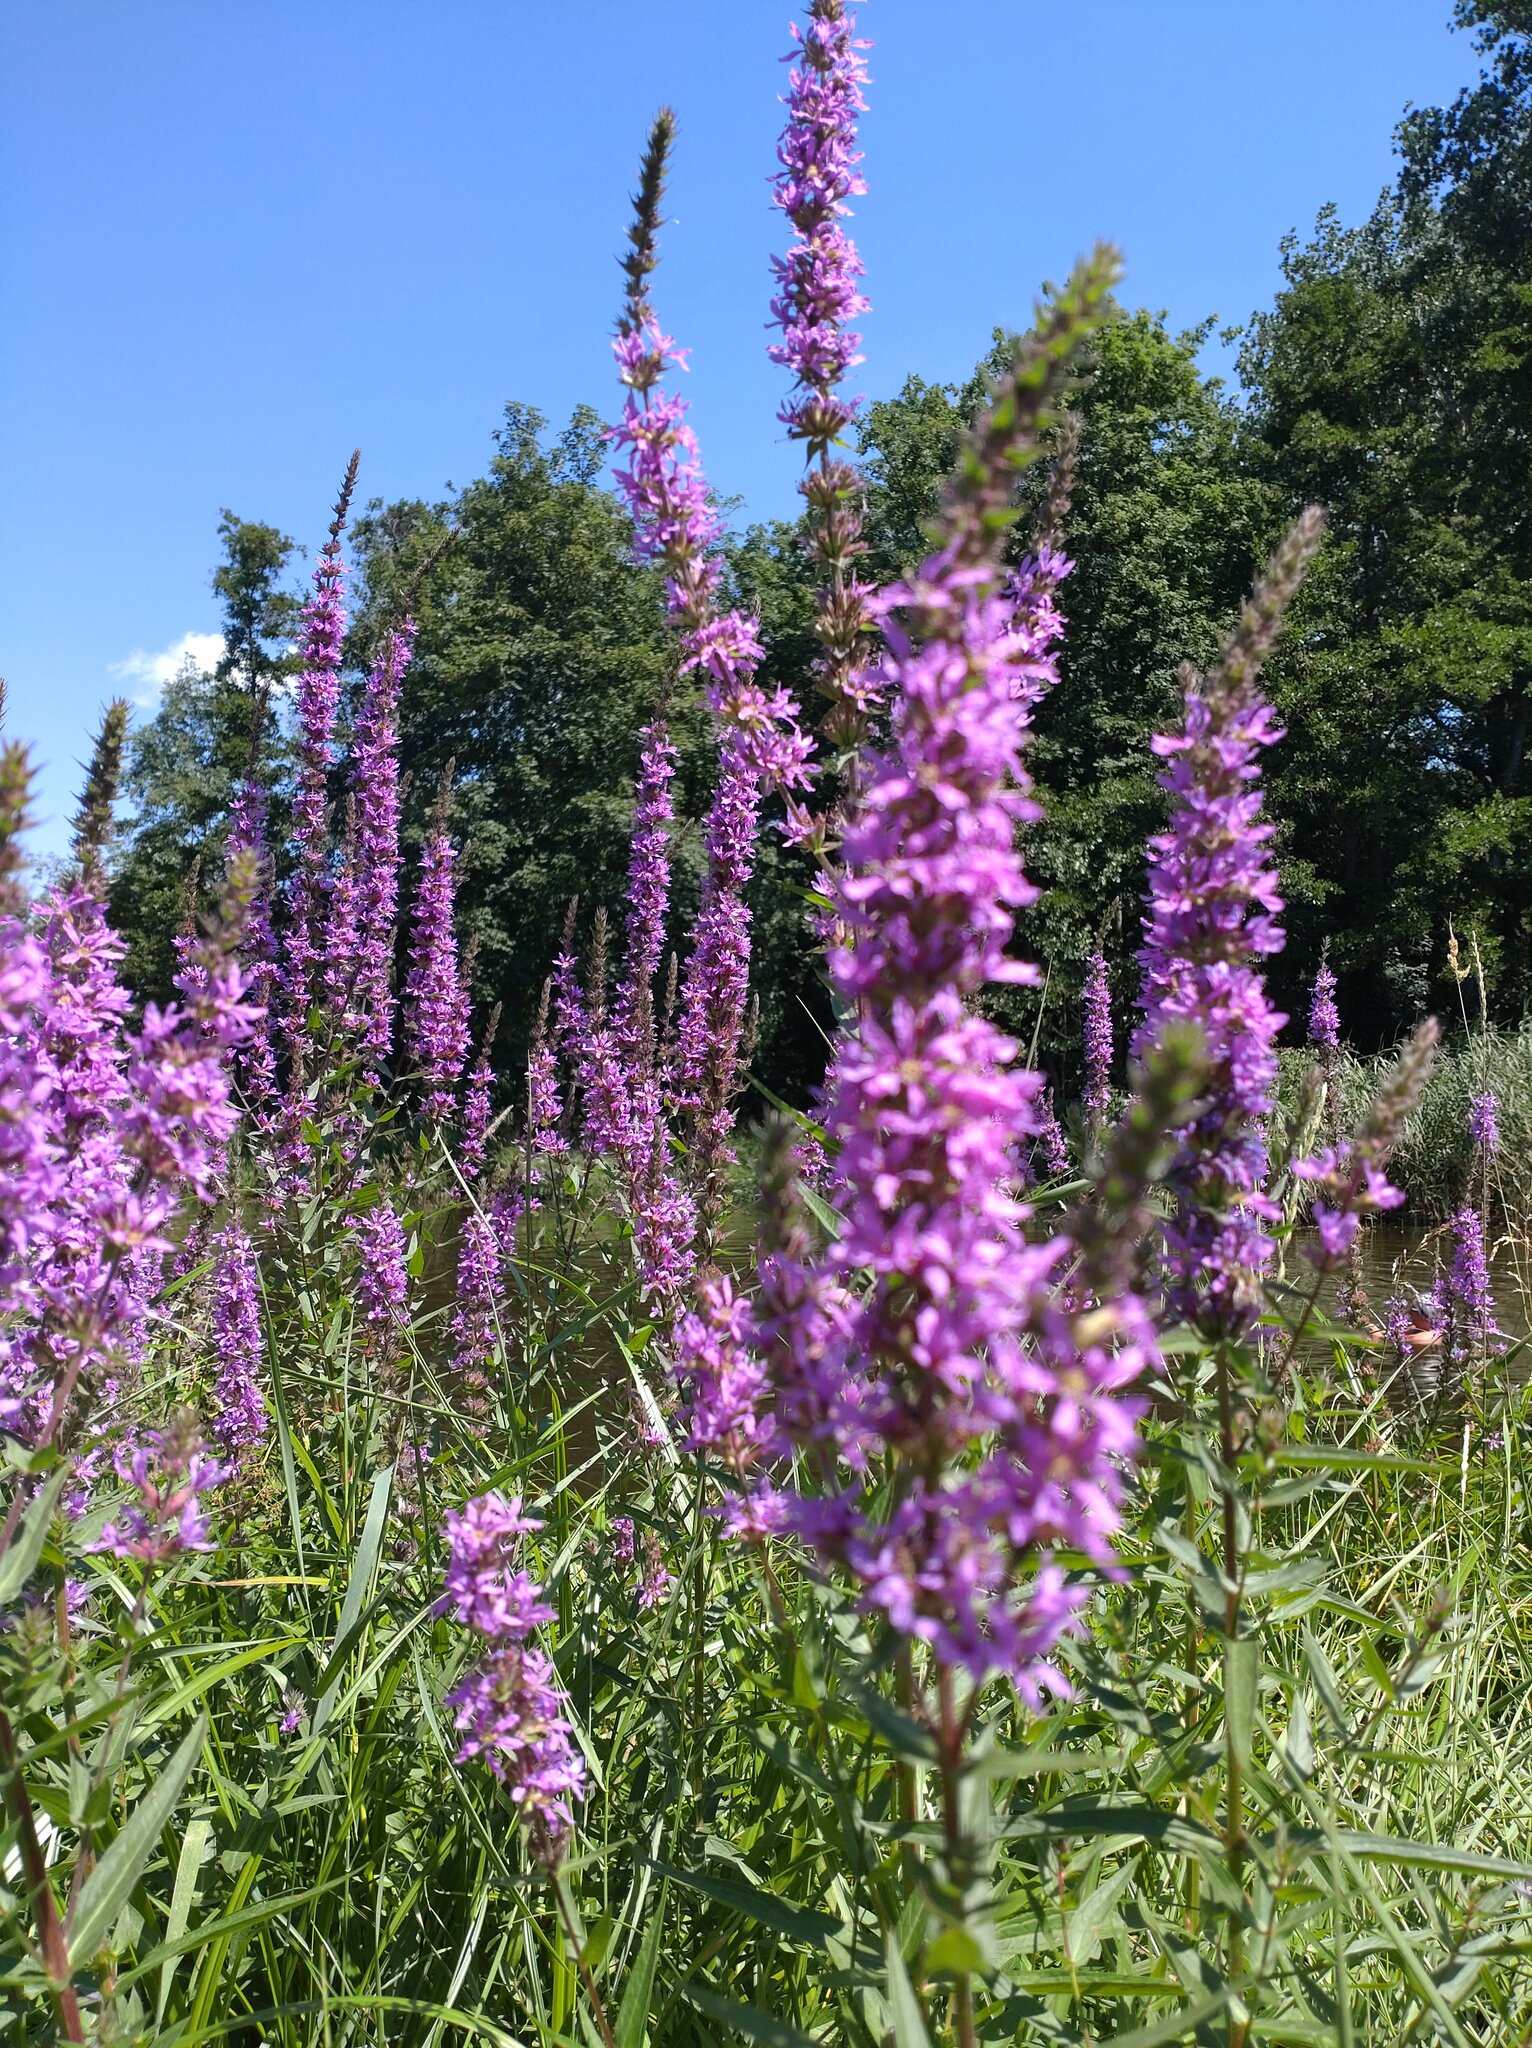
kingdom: Plantae
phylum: Tracheophyta
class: Magnoliopsida
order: Myrtales
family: Lythraceae
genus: Lythrum
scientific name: Lythrum salicaria
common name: Purple loosestrife
